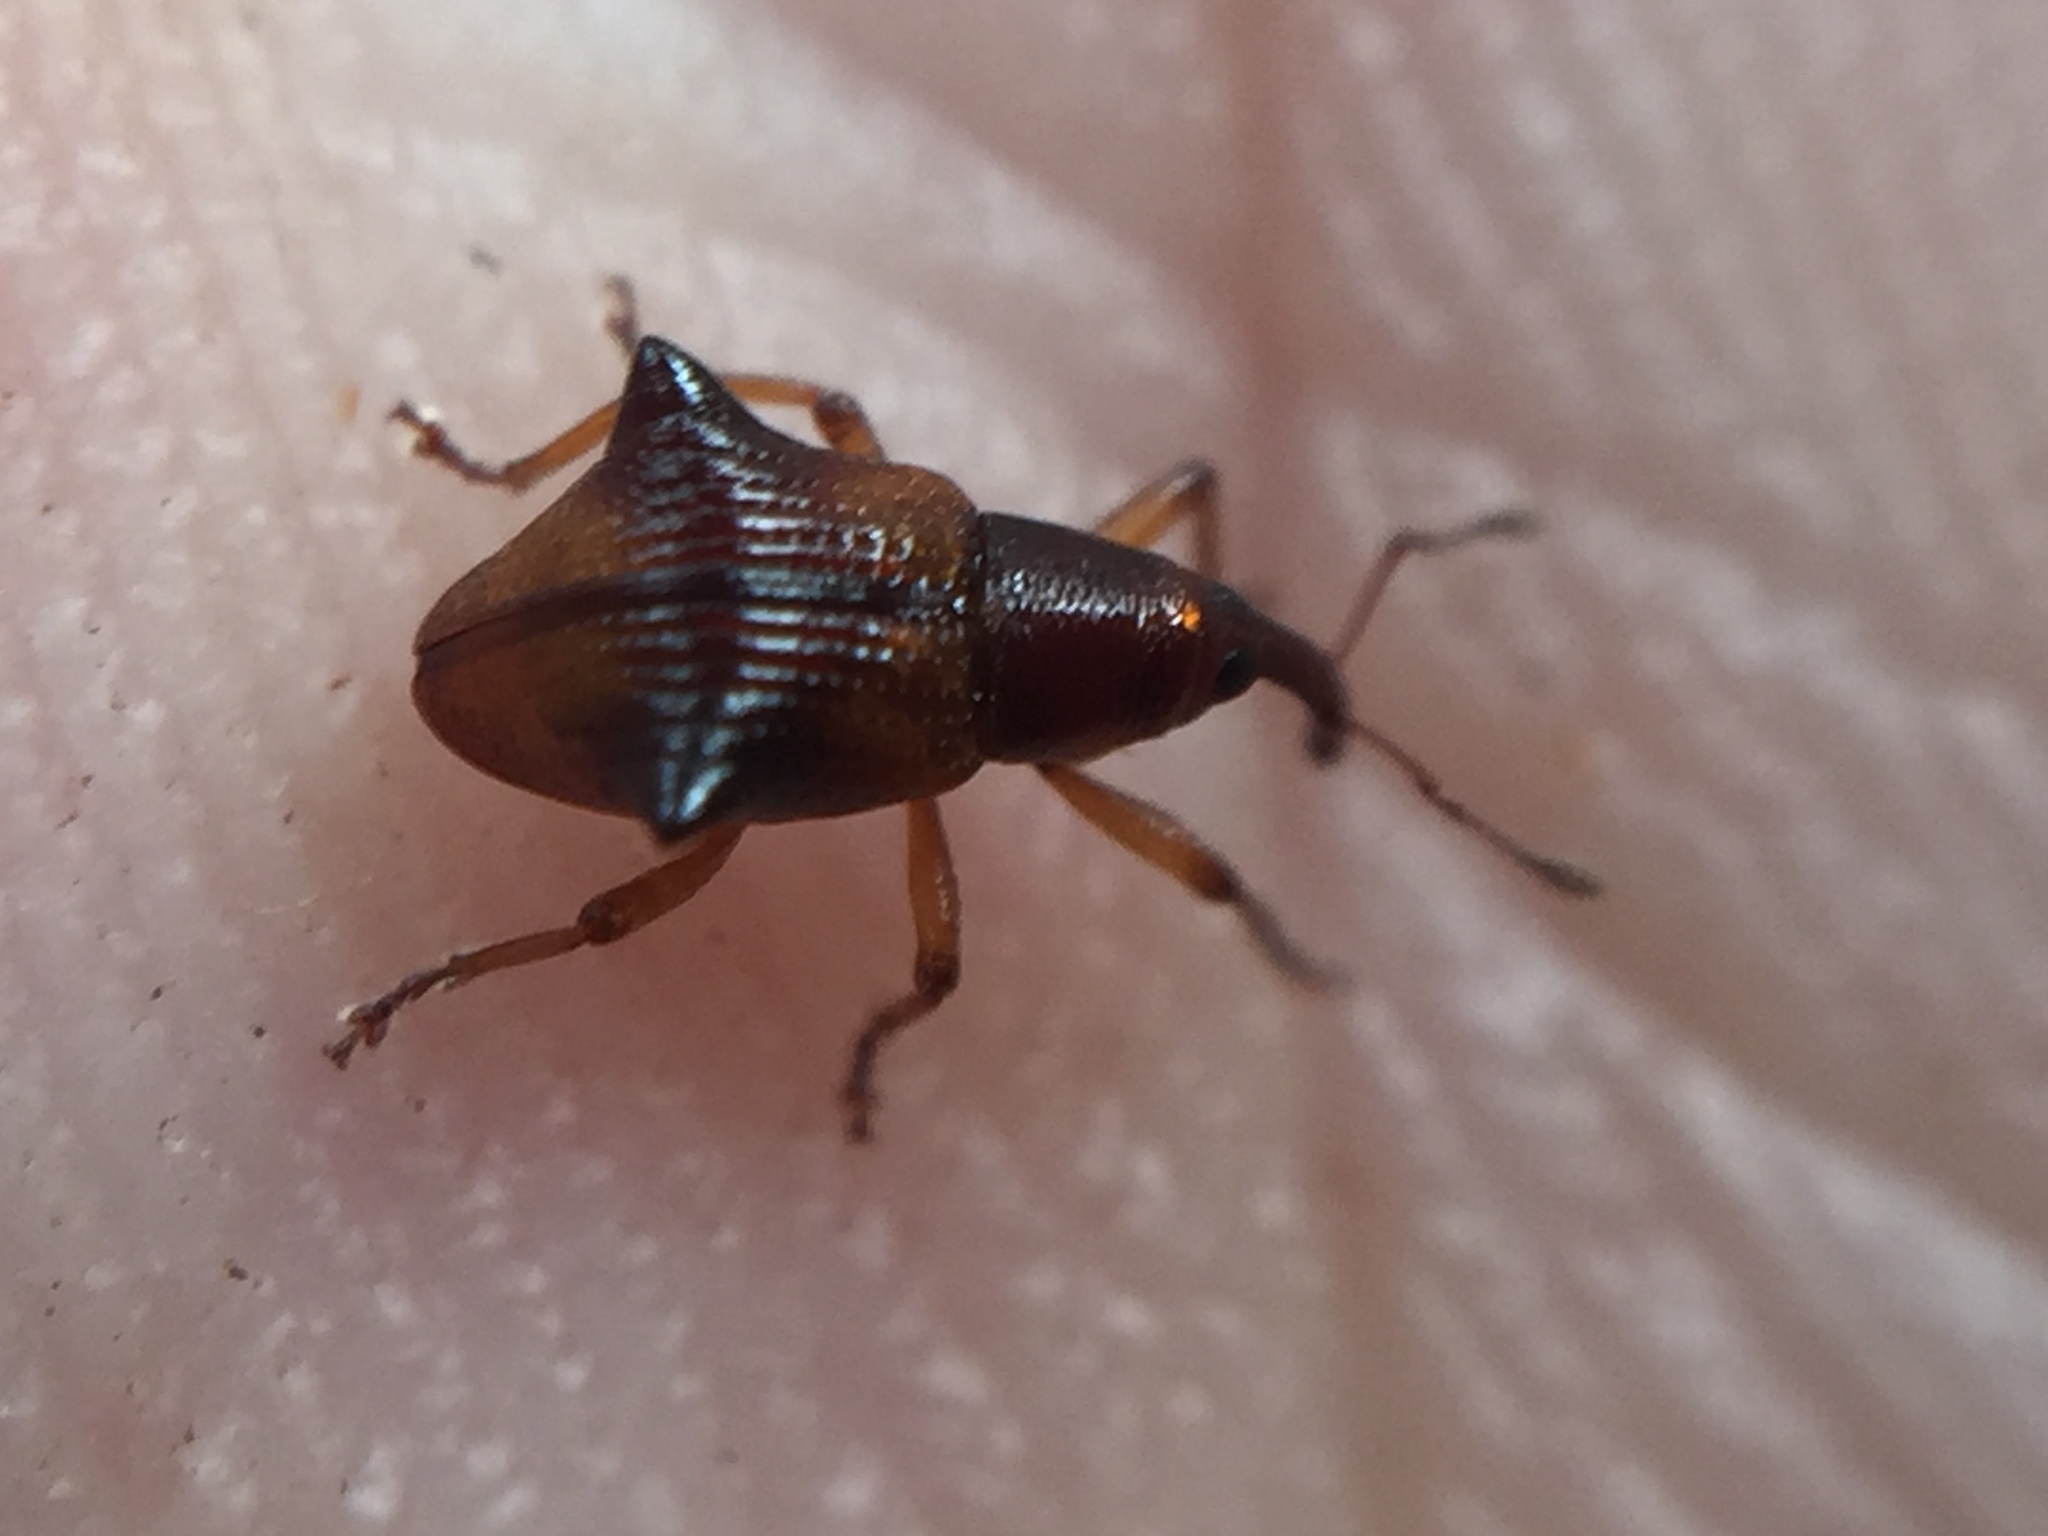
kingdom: Animalia
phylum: Arthropoda
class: Insecta
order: Coleoptera
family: Curculionidae
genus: Oropterus
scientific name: Oropterus coniger
